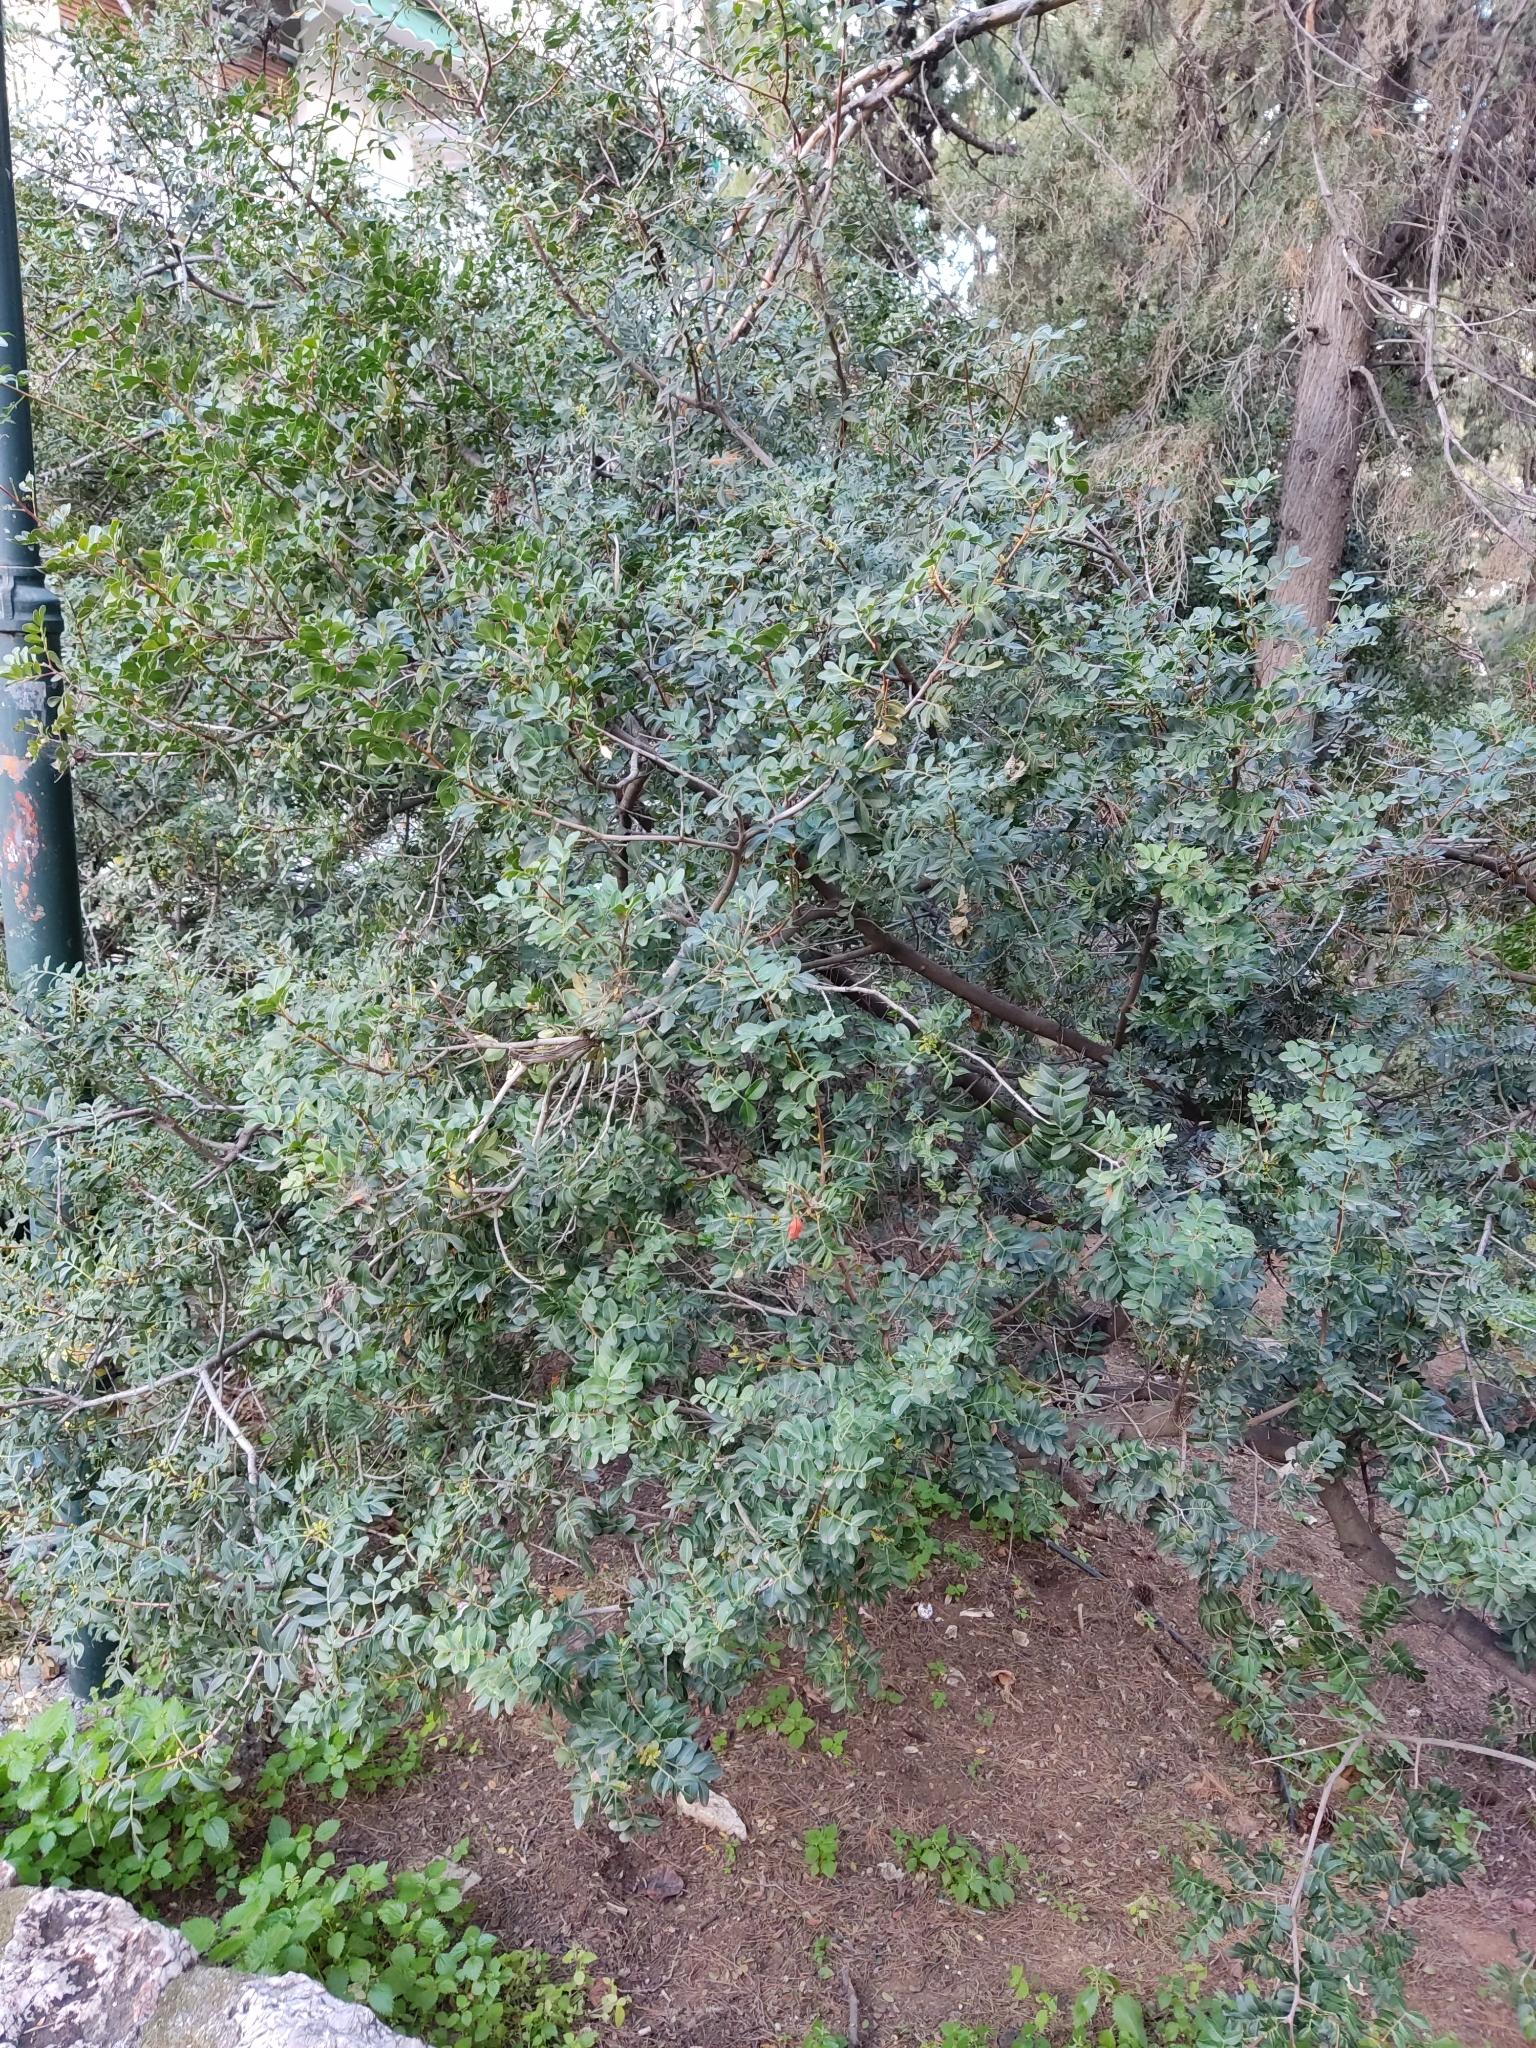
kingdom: Plantae
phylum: Tracheophyta
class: Magnoliopsida
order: Sapindales
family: Anacardiaceae
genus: Pistacia
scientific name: Pistacia lentiscus
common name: Lentisk
